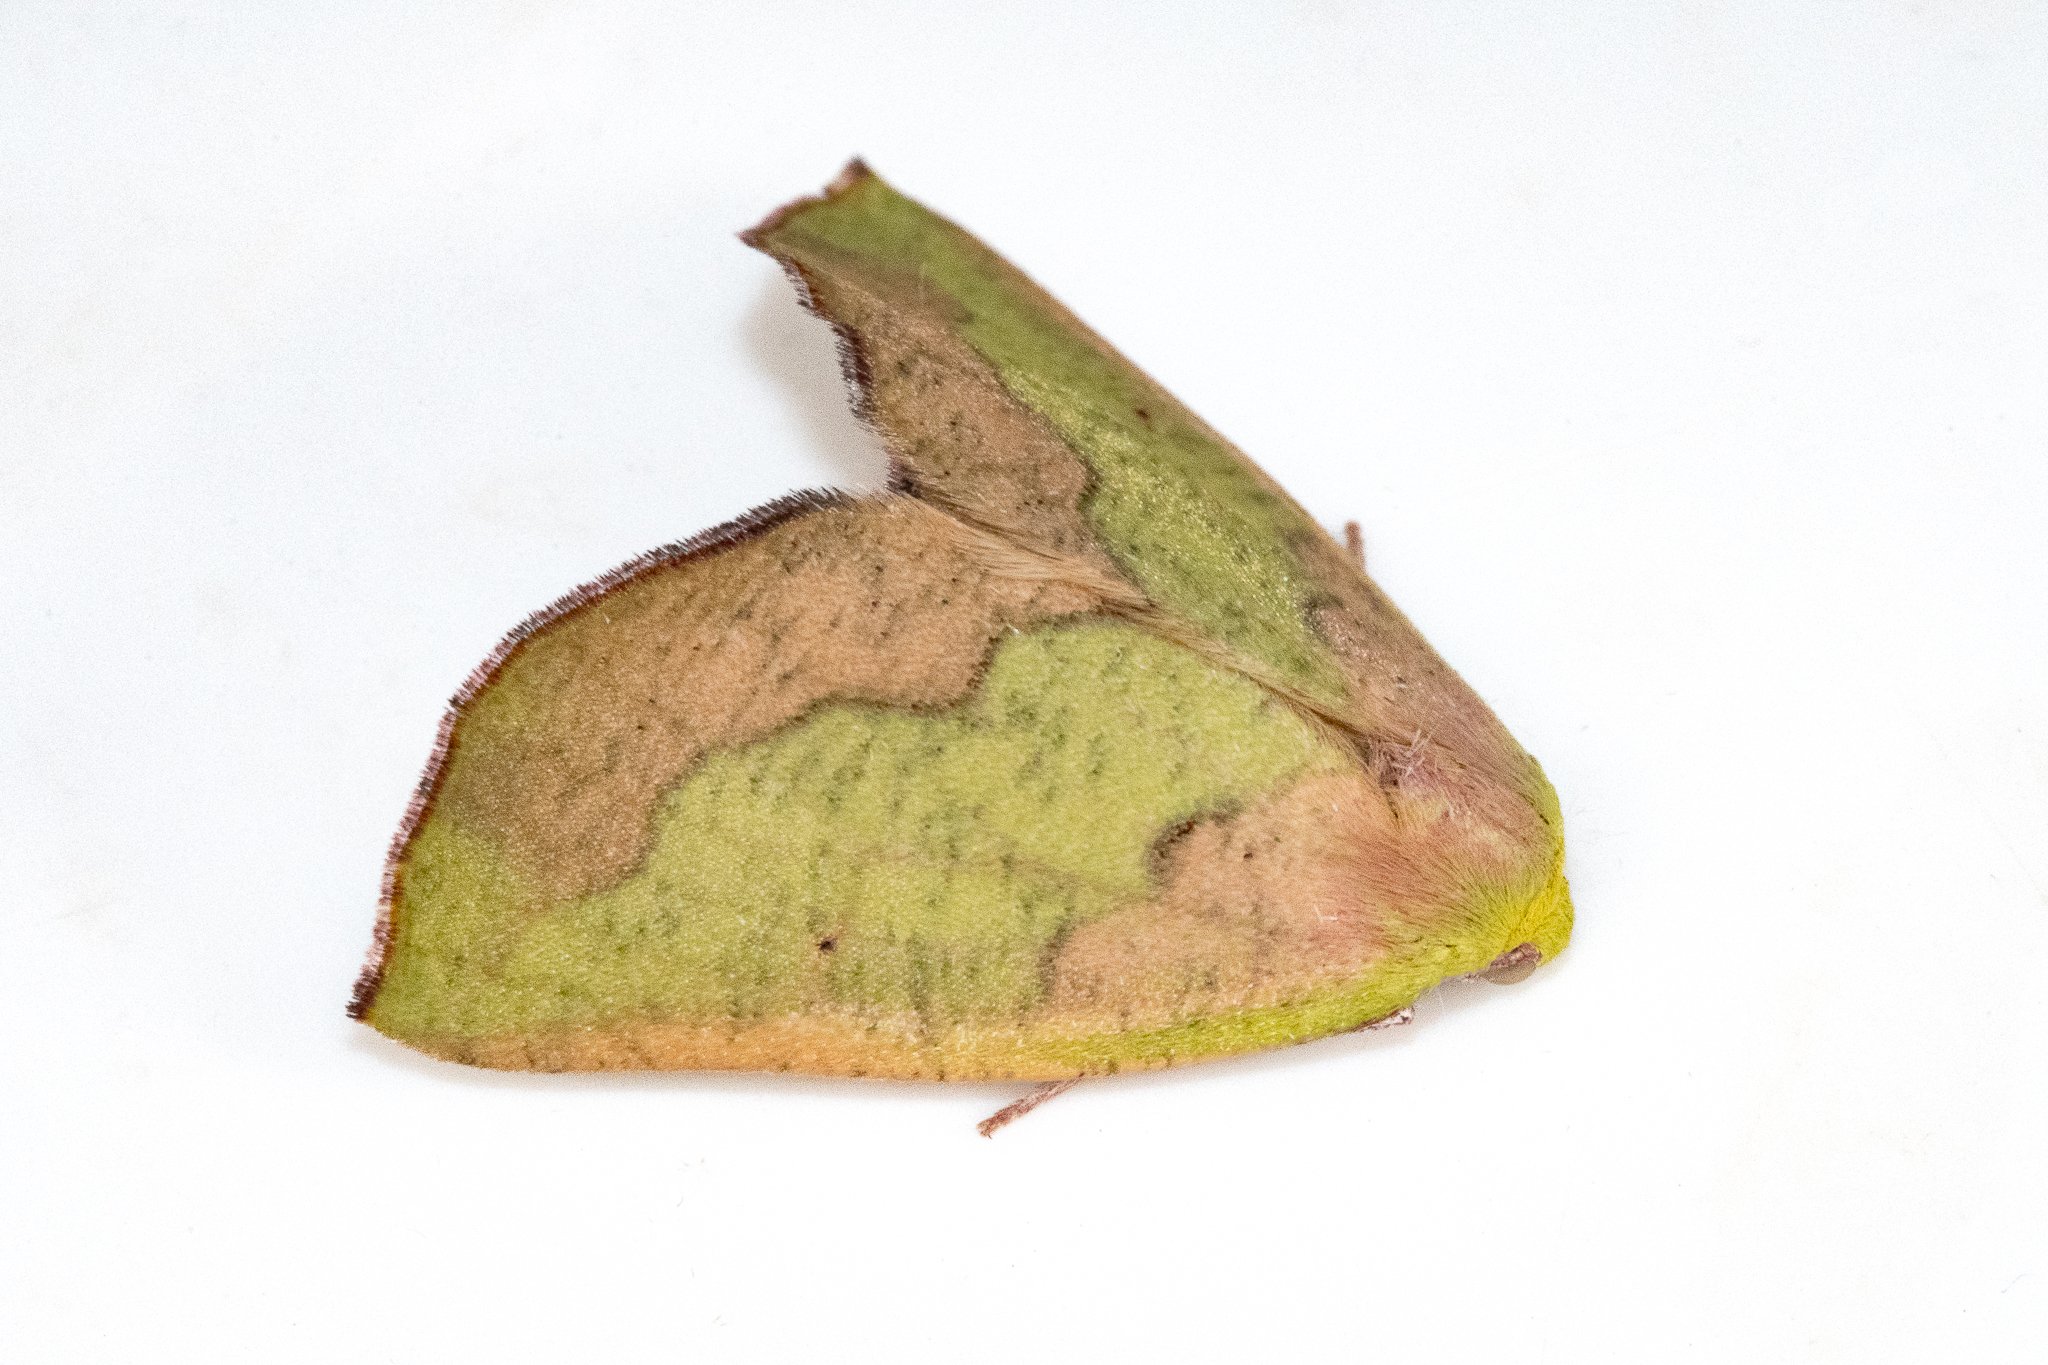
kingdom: Animalia
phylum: Arthropoda
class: Insecta
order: Lepidoptera
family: Geometridae
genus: Sicyodes
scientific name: Sicyodes olivescens
